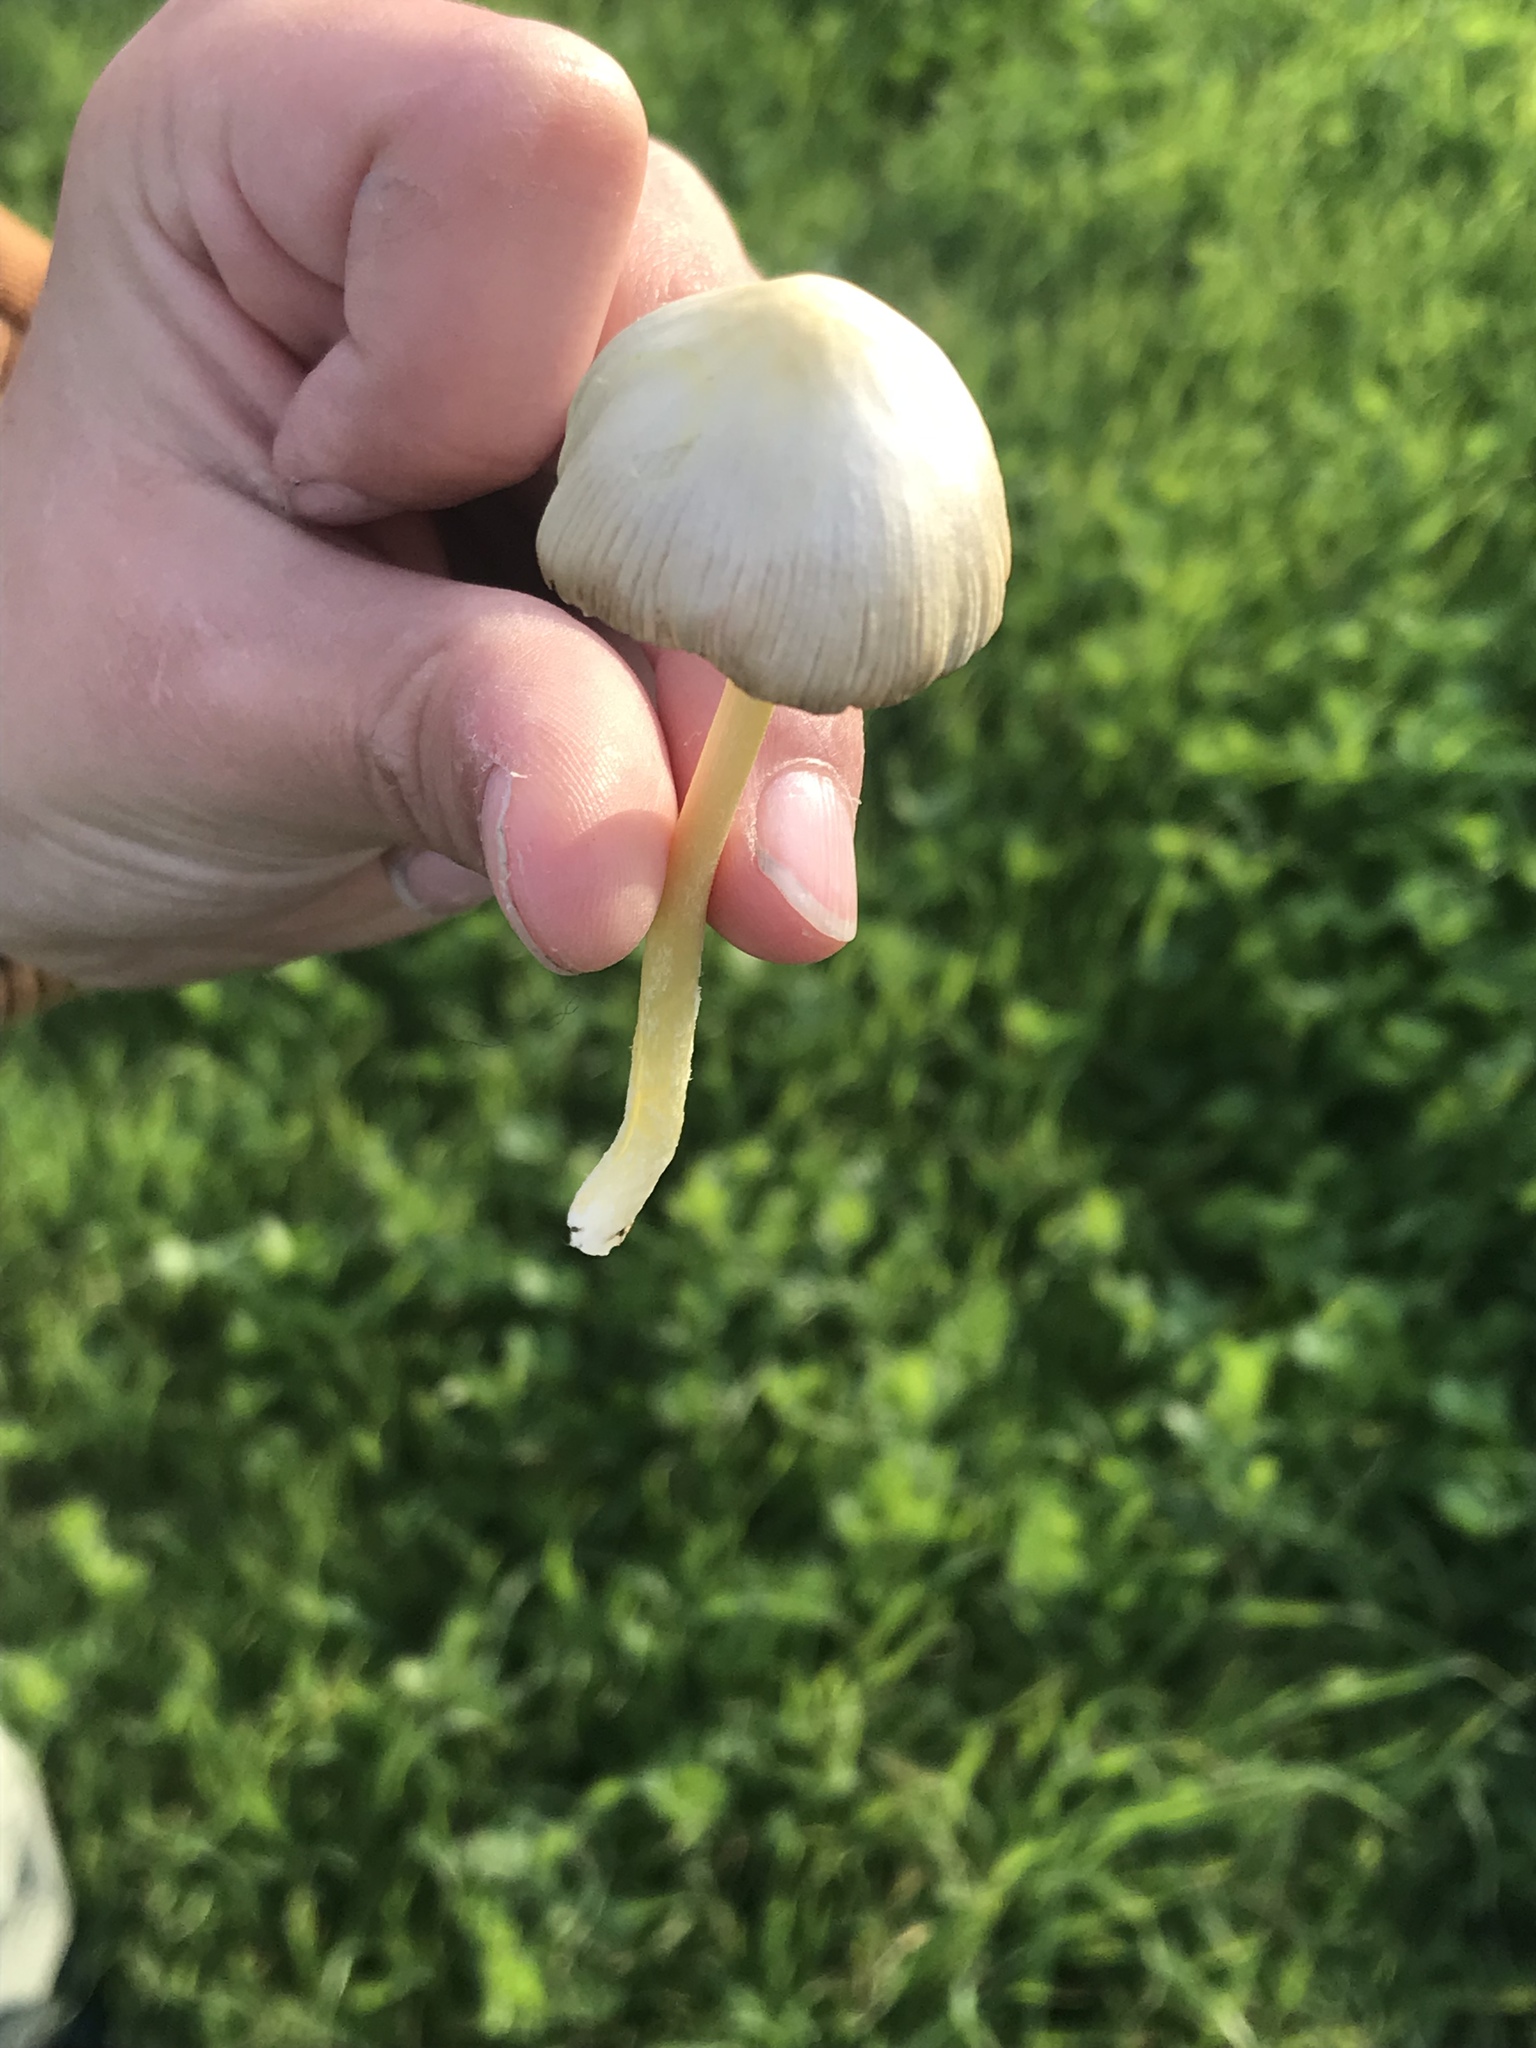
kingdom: Fungi
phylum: Basidiomycota
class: Agaricomycetes
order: Agaricales
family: Bolbitiaceae
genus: Bolbitius
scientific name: Bolbitius titubans
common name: Yellow fieldcap
